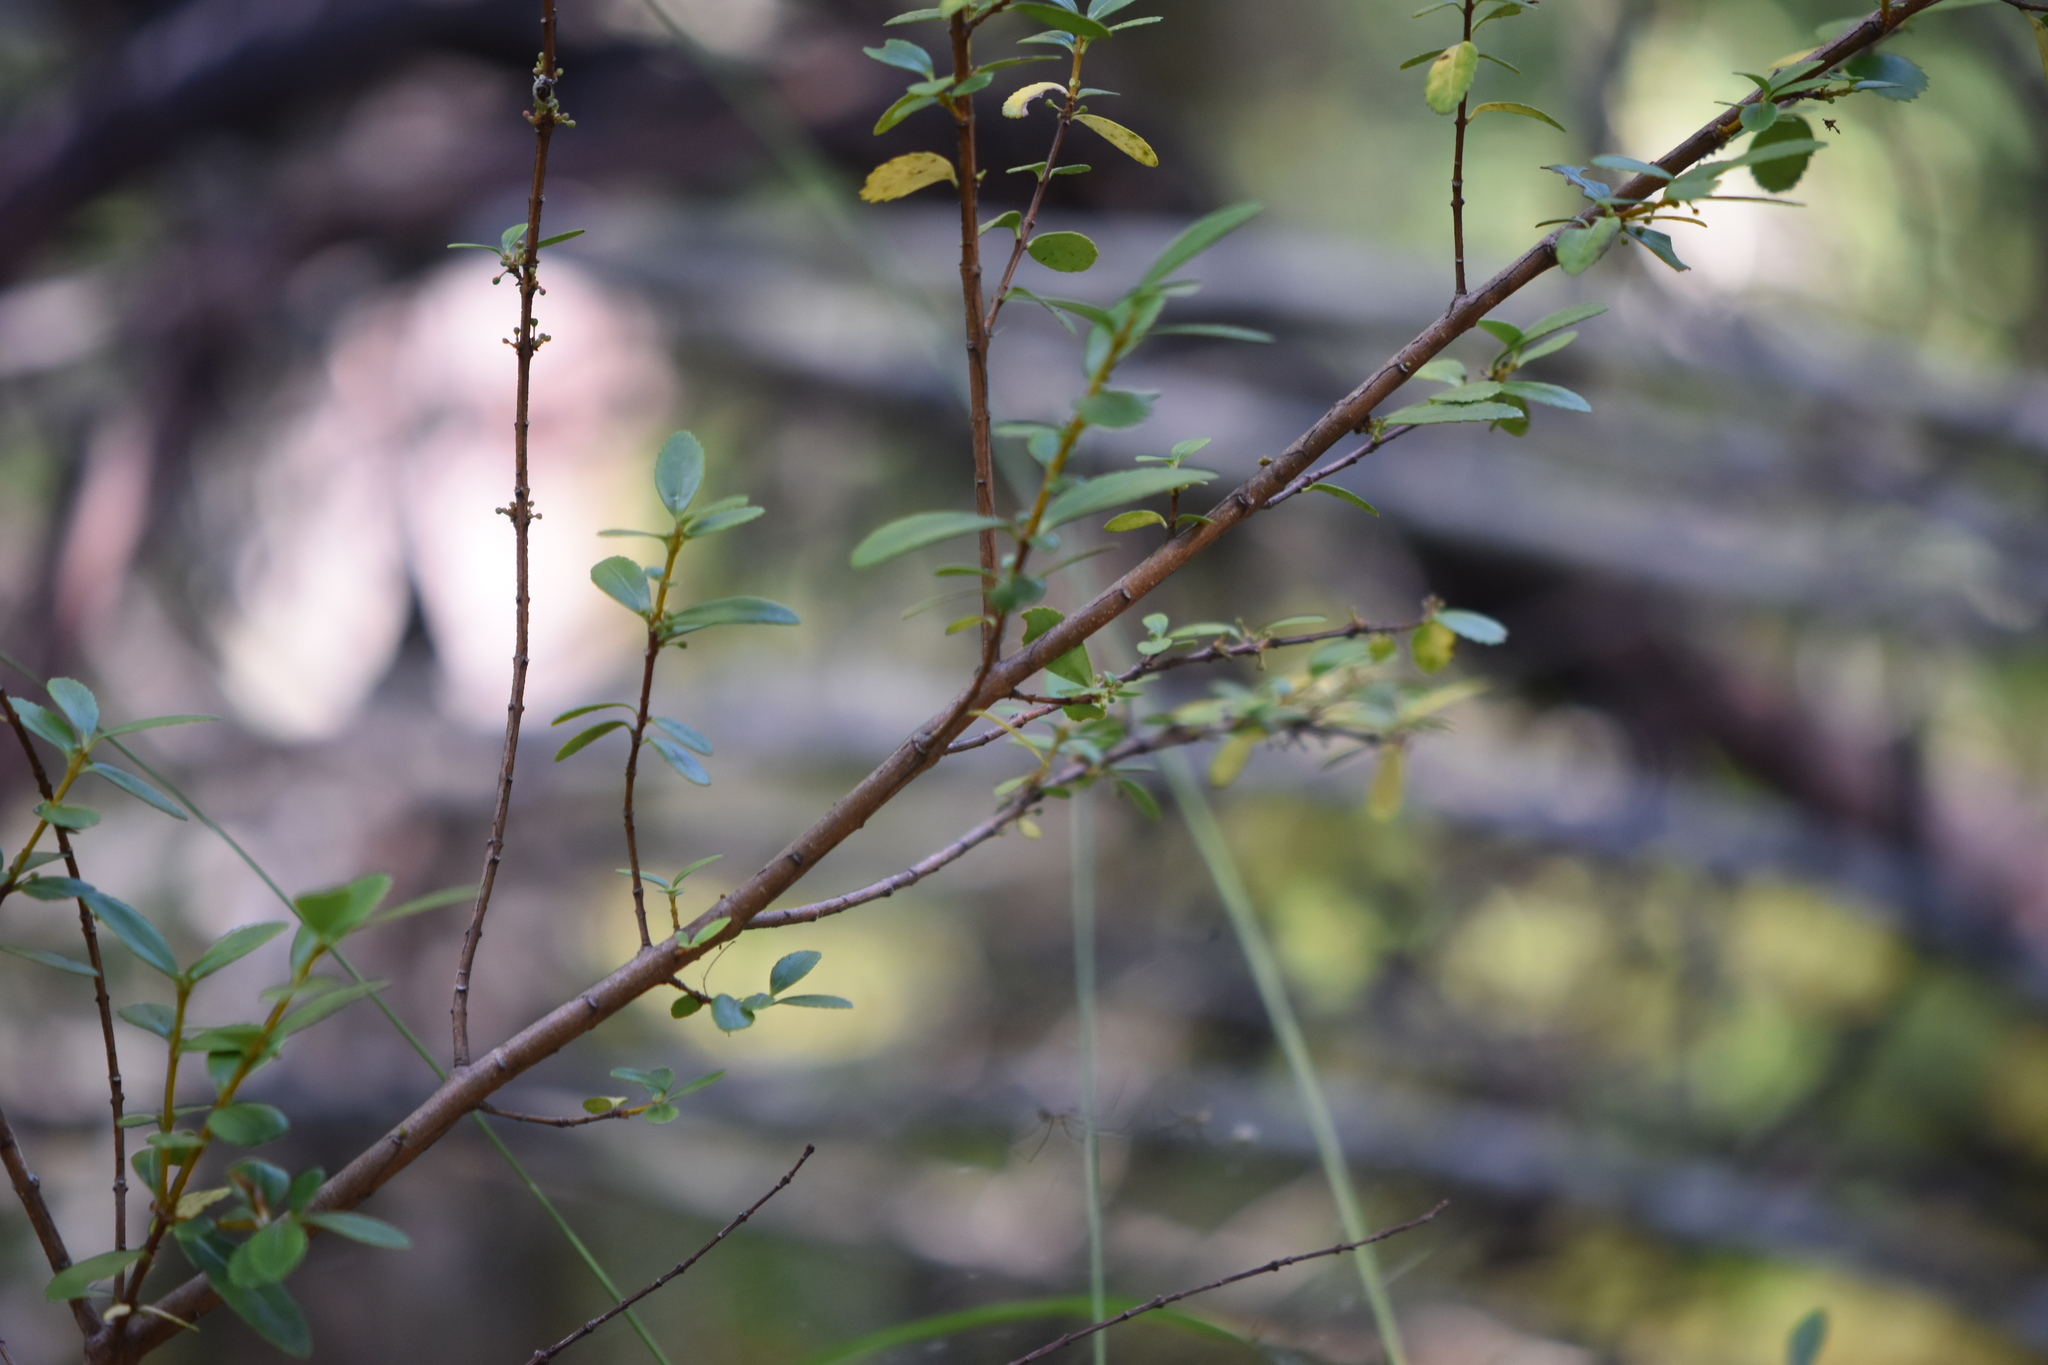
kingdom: Plantae
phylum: Tracheophyta
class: Magnoliopsida
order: Celastrales
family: Celastraceae
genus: Paxistima
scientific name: Paxistima myrsinites
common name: Mountain-lover
